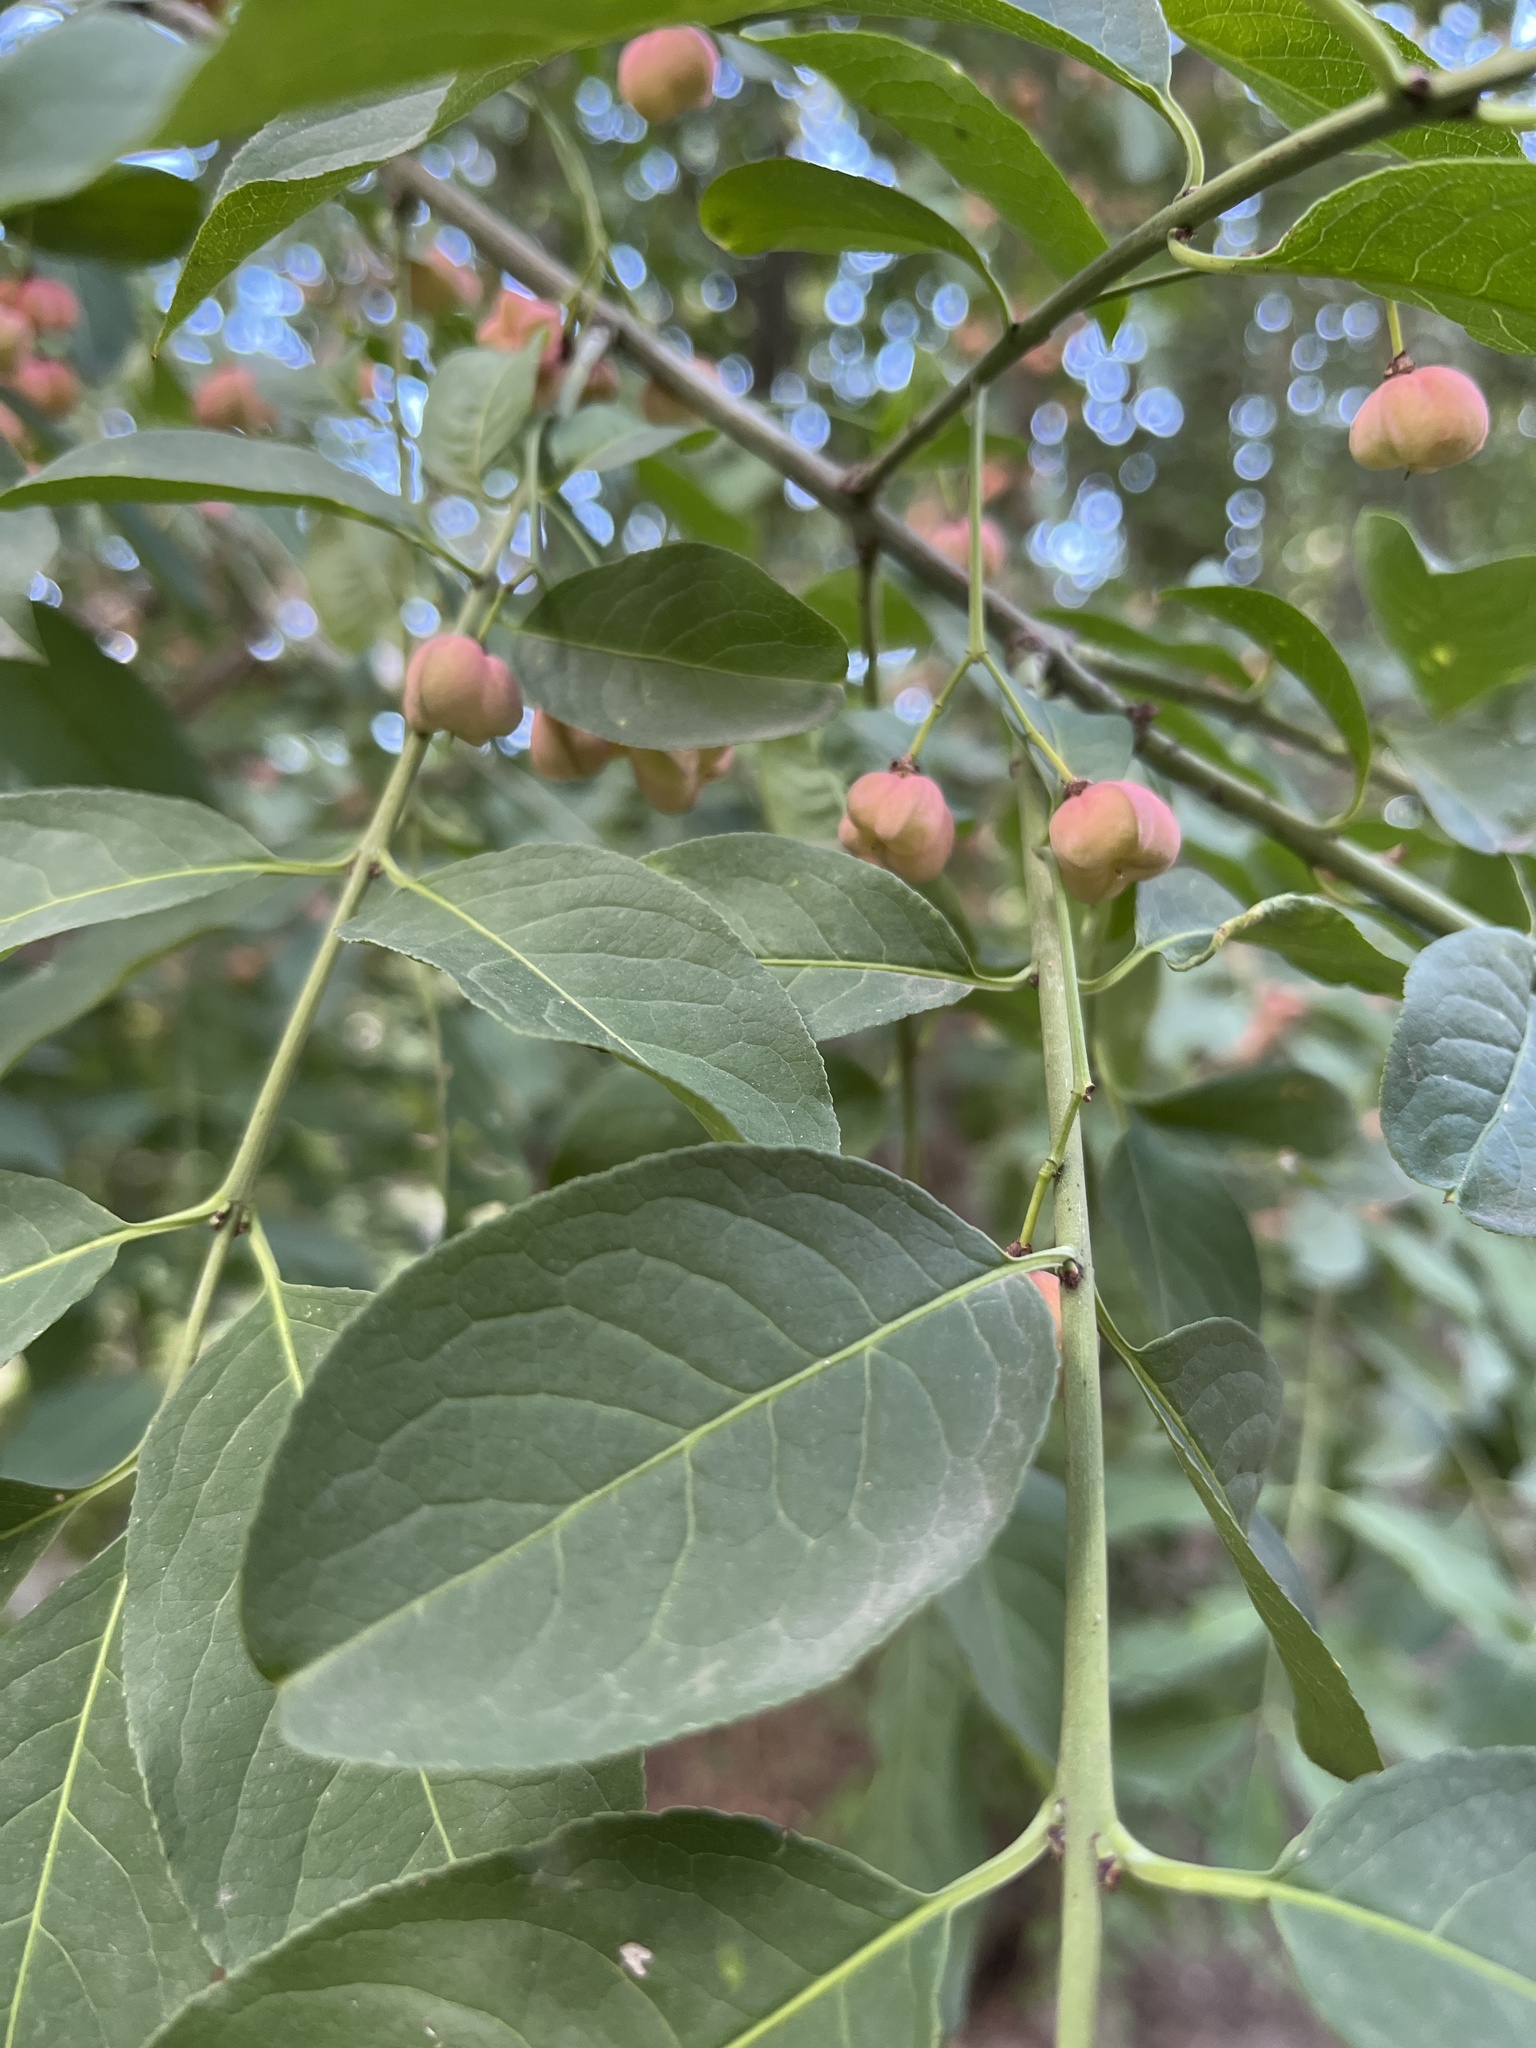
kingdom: Plantae
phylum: Tracheophyta
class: Magnoliopsida
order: Celastrales
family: Celastraceae
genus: Euonymus
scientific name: Euonymus europaeus
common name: Spindle
